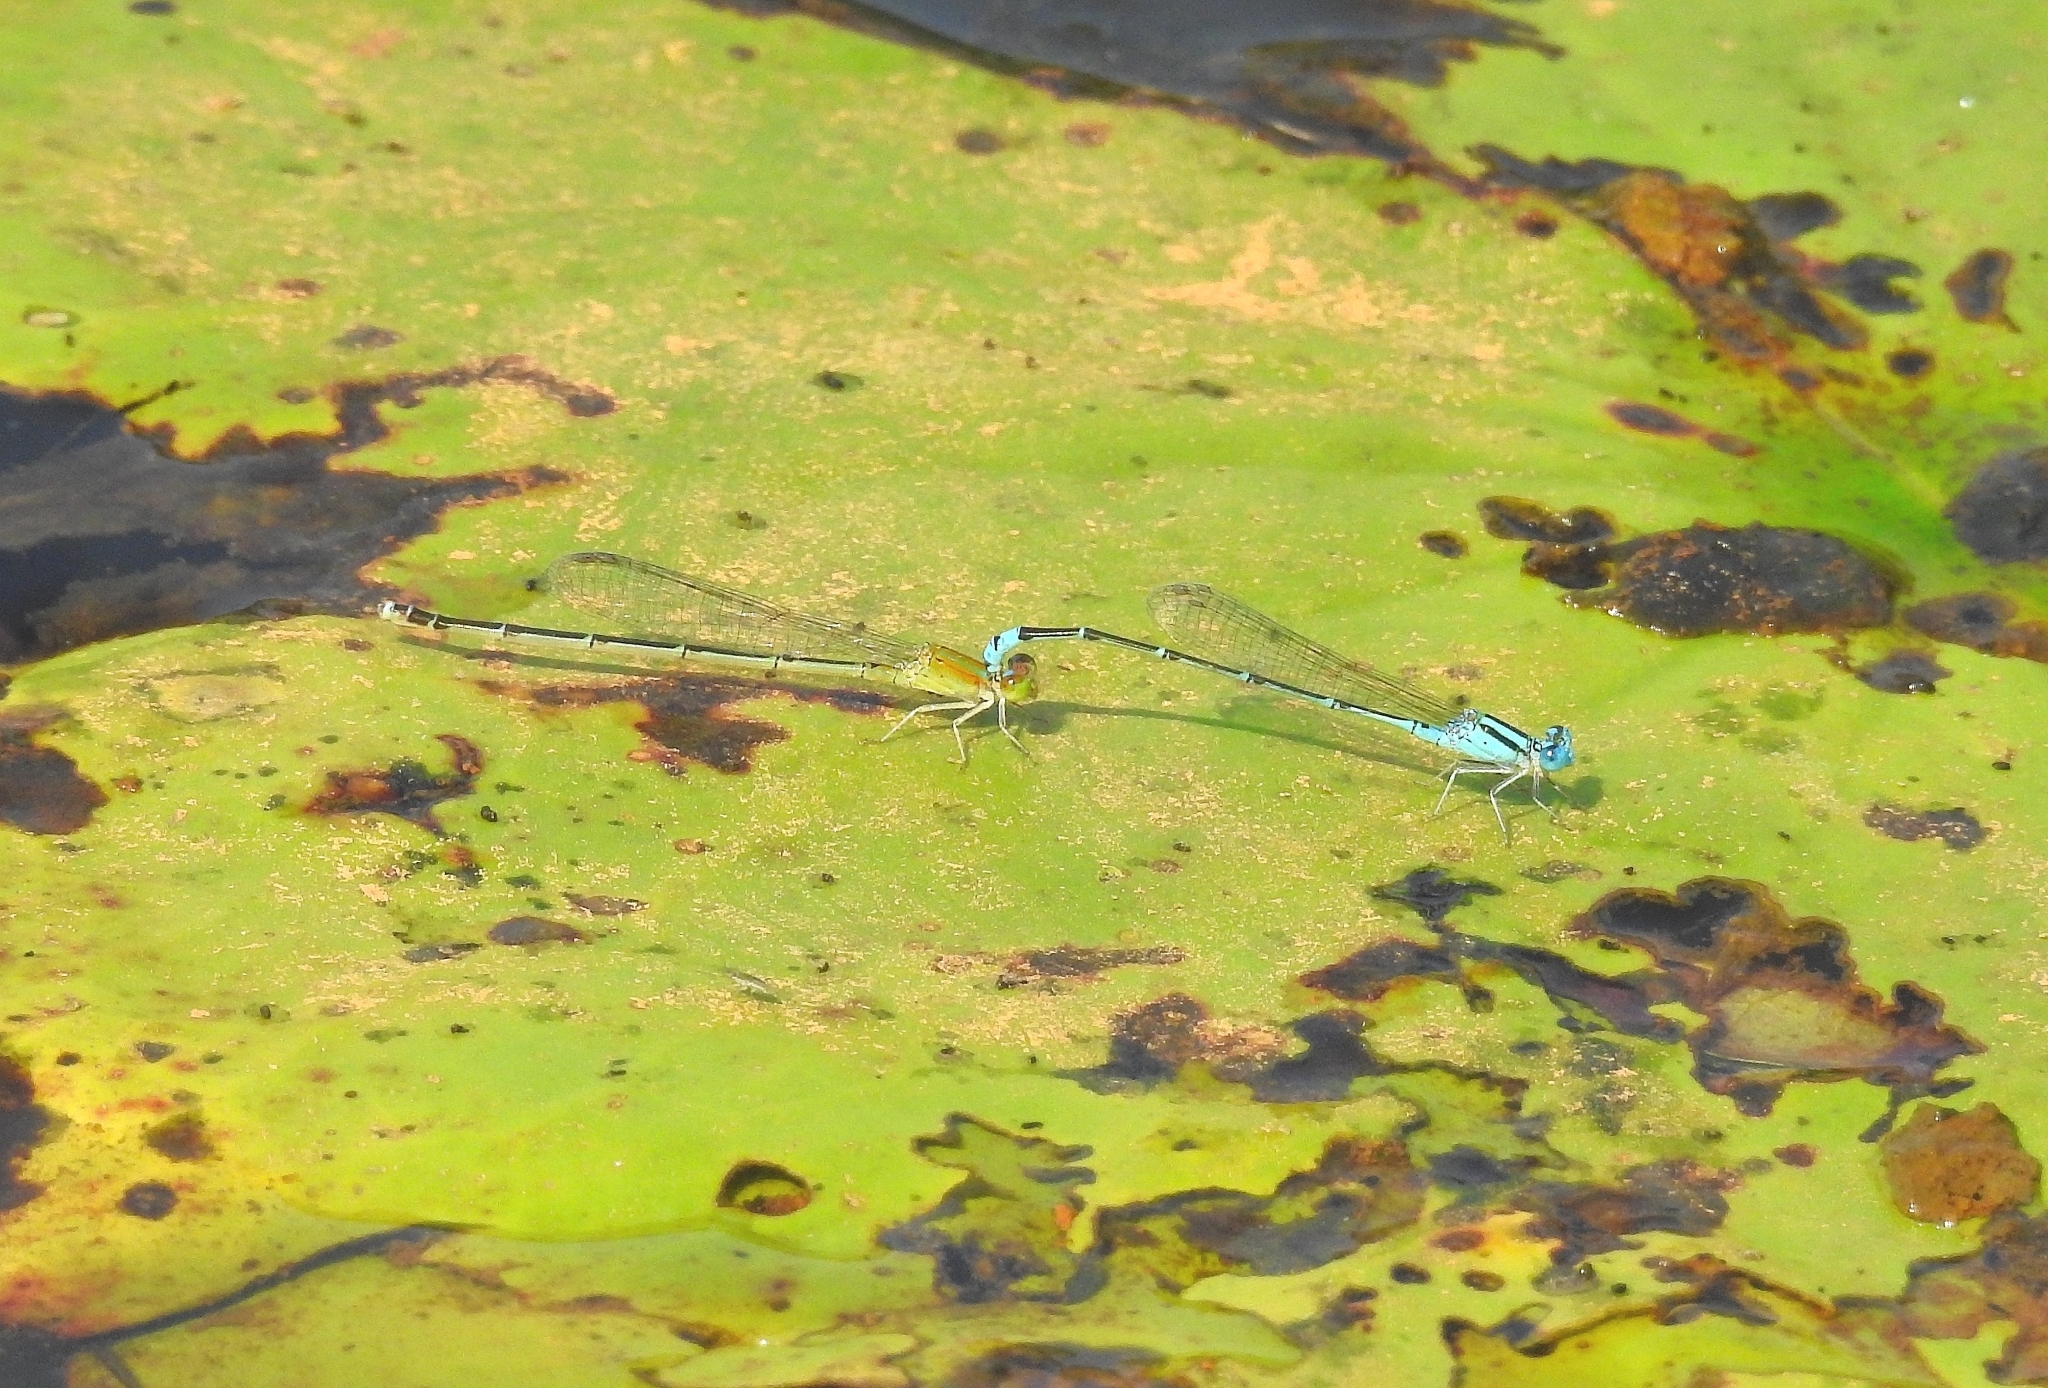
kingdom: Animalia
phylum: Arthropoda
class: Insecta
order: Odonata
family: Coenagrionidae
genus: Pseudagrion
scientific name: Pseudagrion microcephalum
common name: Blue riverdamsel
